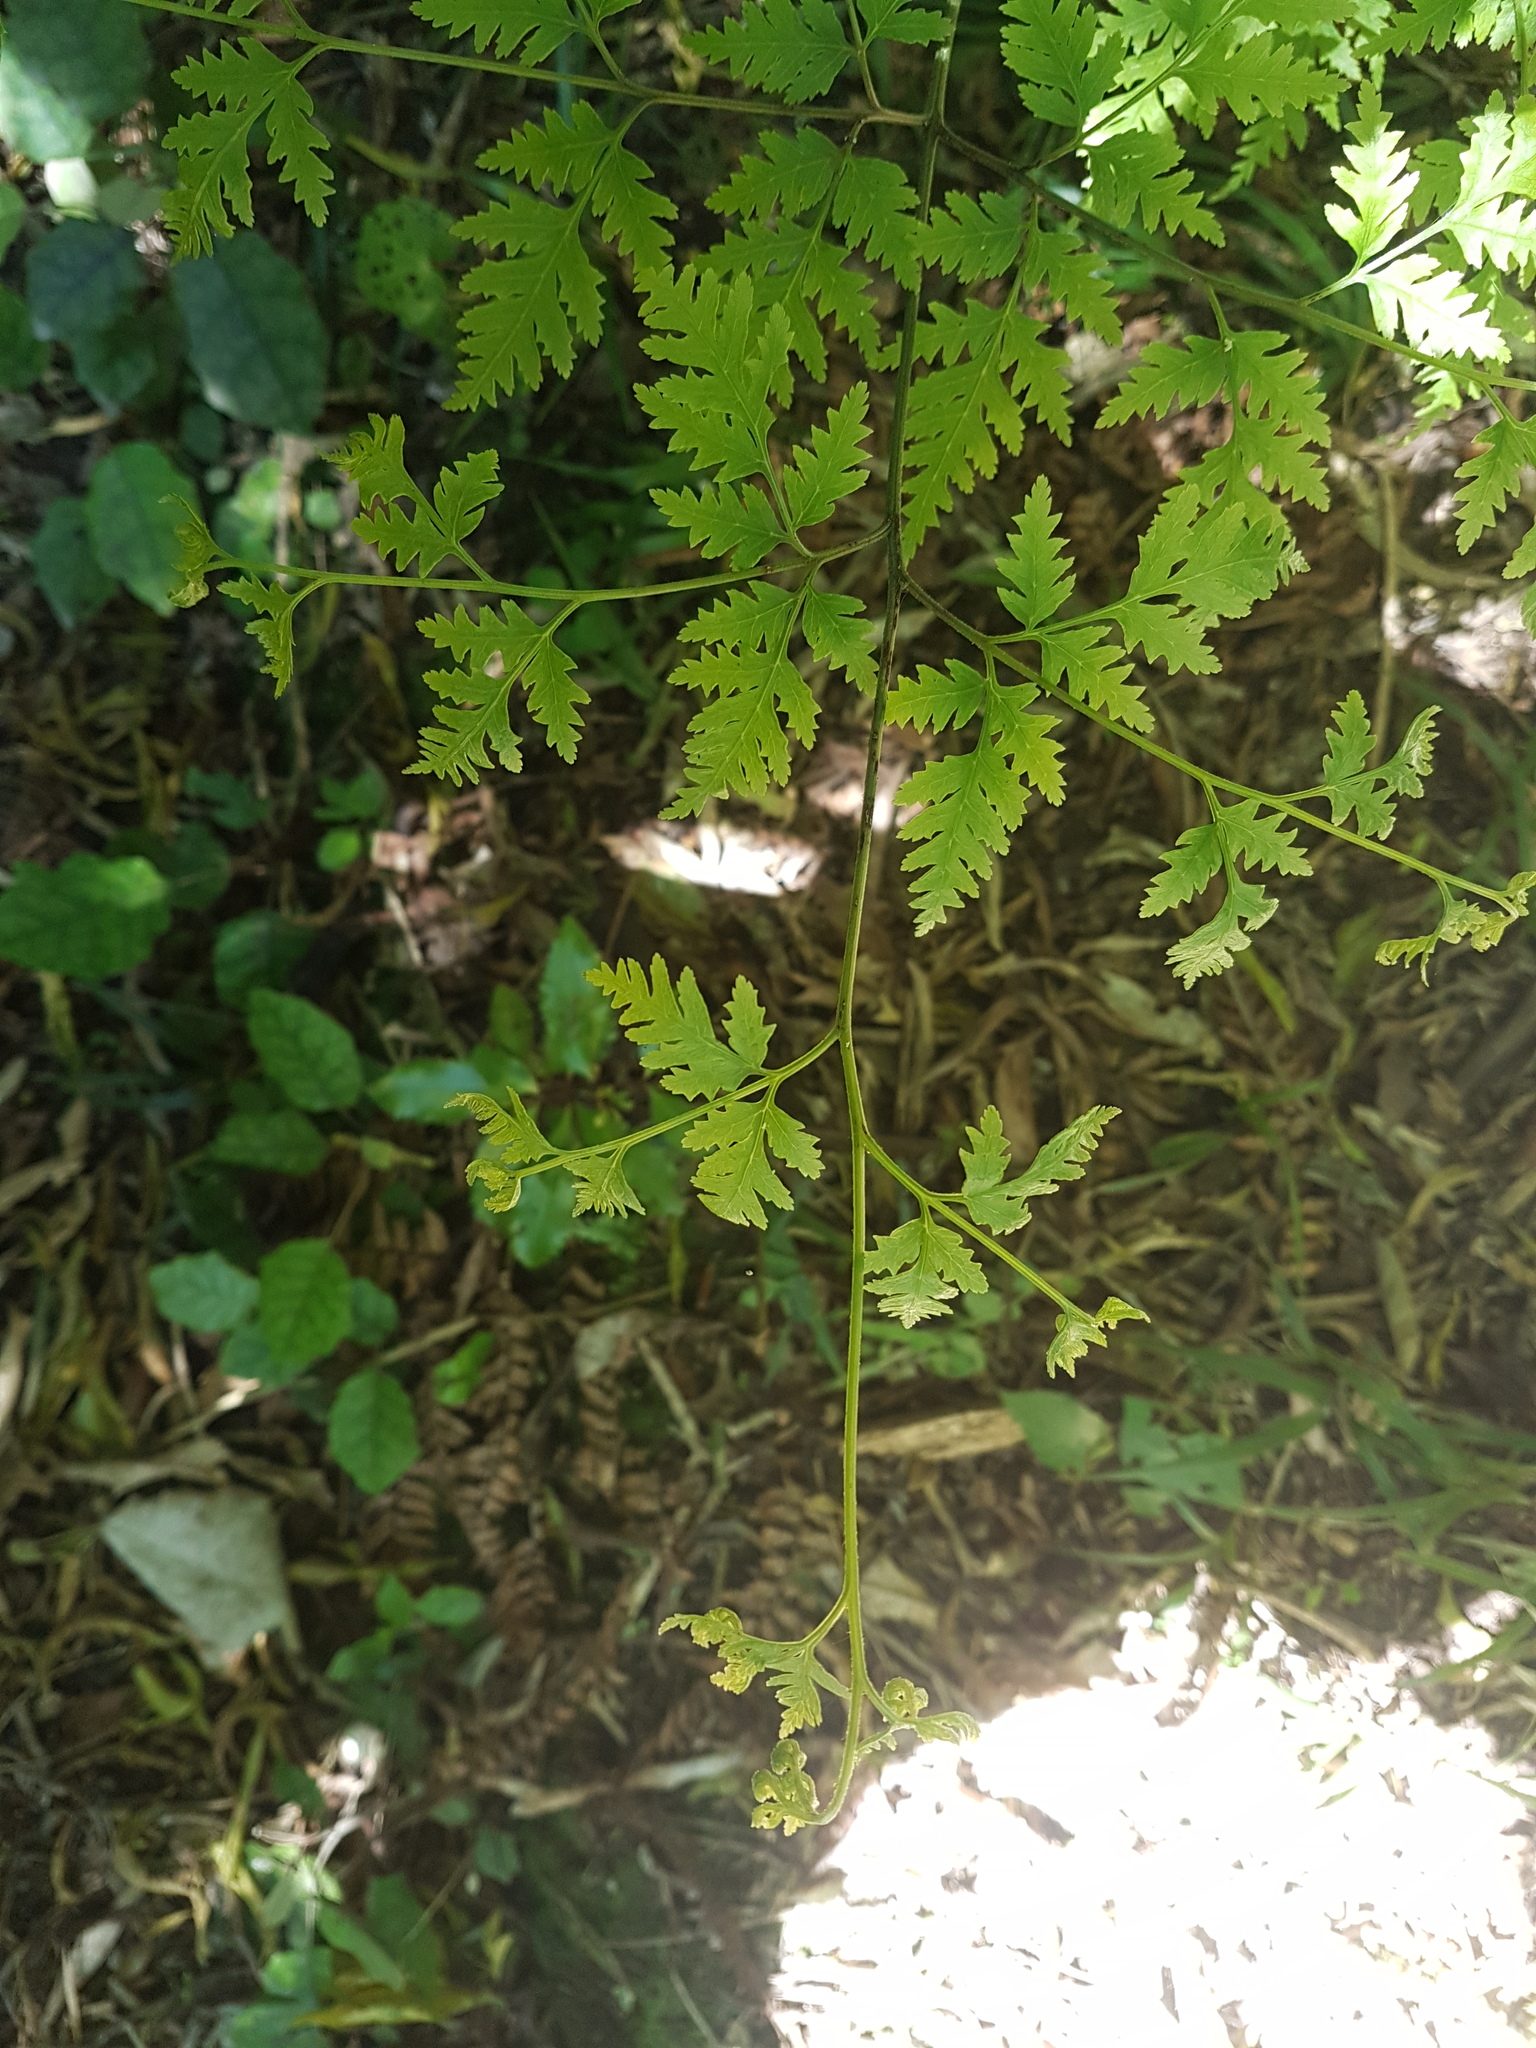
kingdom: Plantae
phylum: Tracheophyta
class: Polypodiopsida
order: Polypodiales
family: Pteridaceae
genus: Pteris
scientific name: Pteris macilenta
